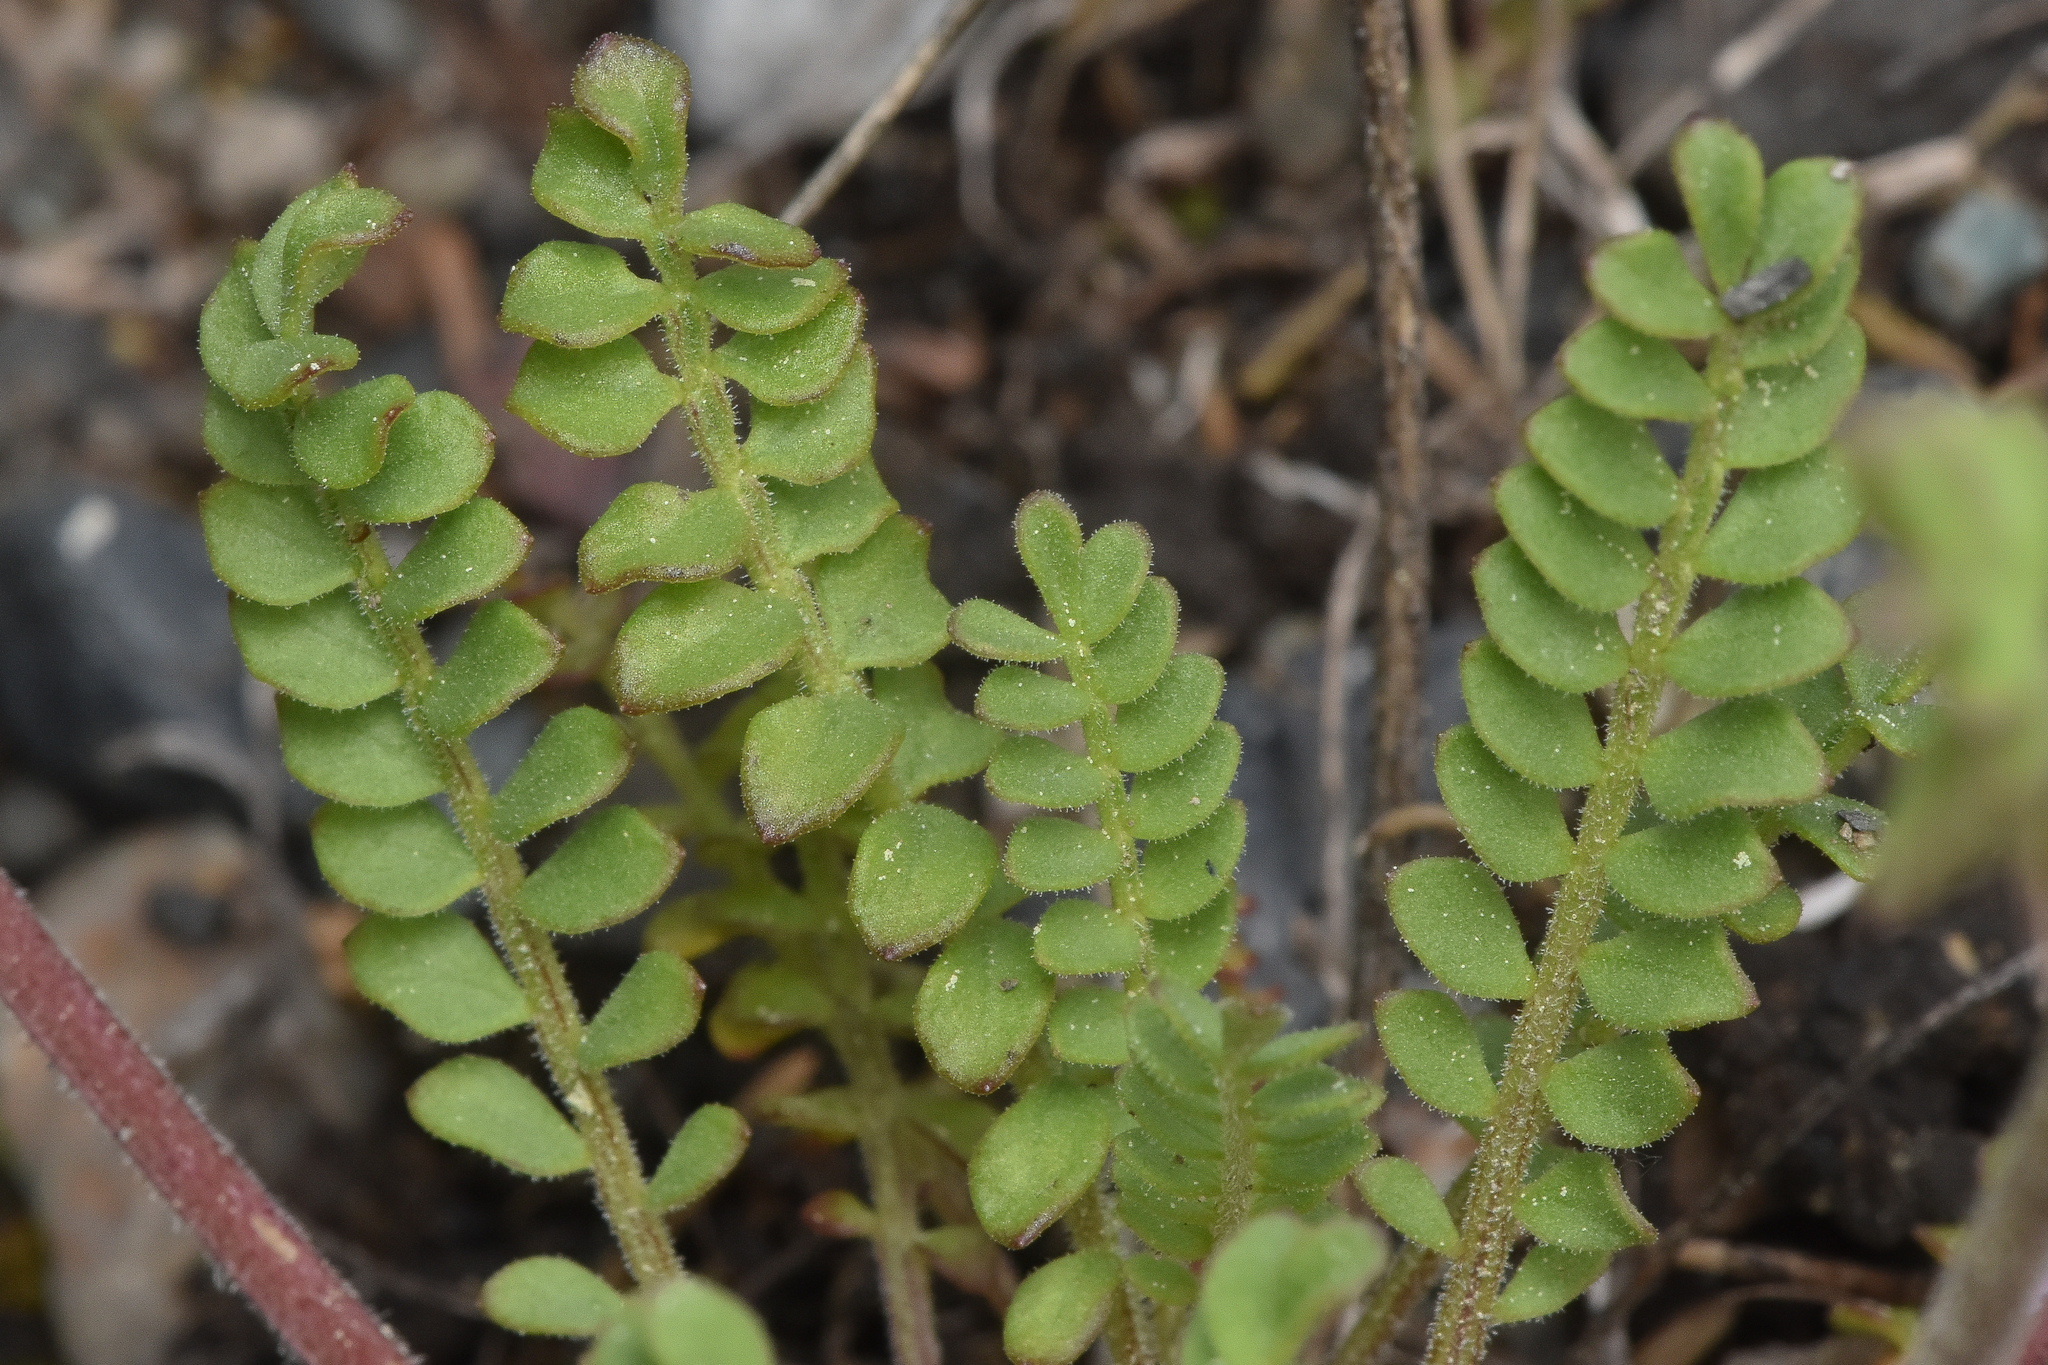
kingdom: Plantae
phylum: Tracheophyta
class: Magnoliopsida
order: Ericales
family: Polemoniaceae
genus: Polemonium
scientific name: Polemonium pulcherrimum
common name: Short jacob's-ladder
